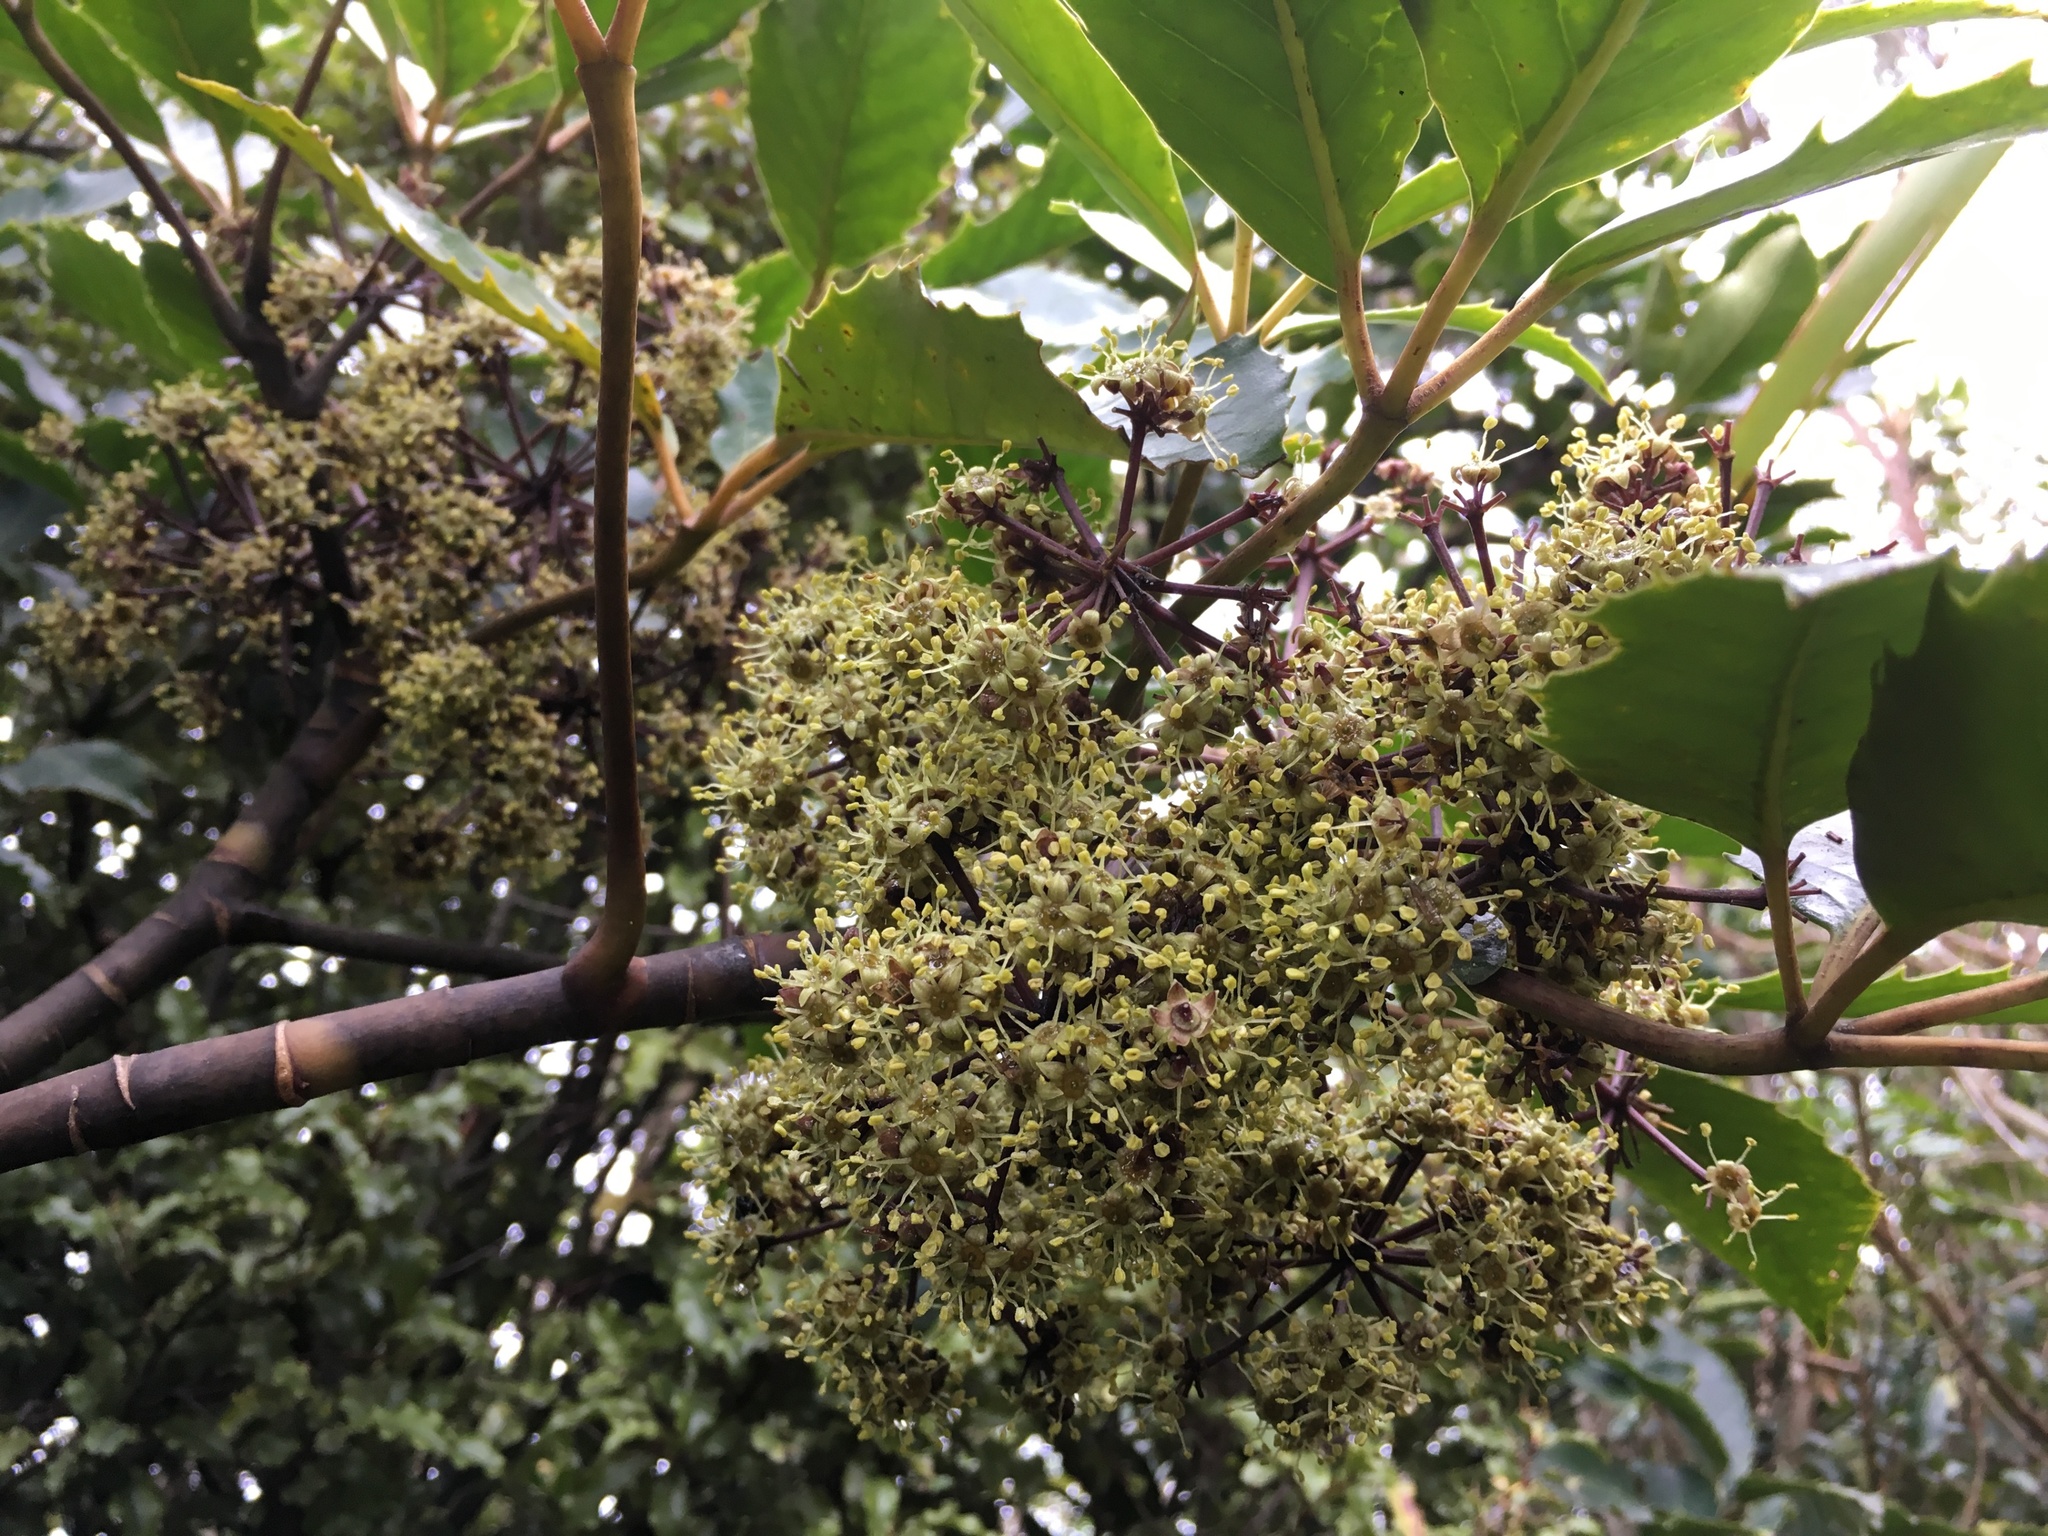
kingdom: Plantae
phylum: Tracheophyta
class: Magnoliopsida
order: Apiales
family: Araliaceae
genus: Neopanax
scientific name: Neopanax arboreus
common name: Five-fingers
